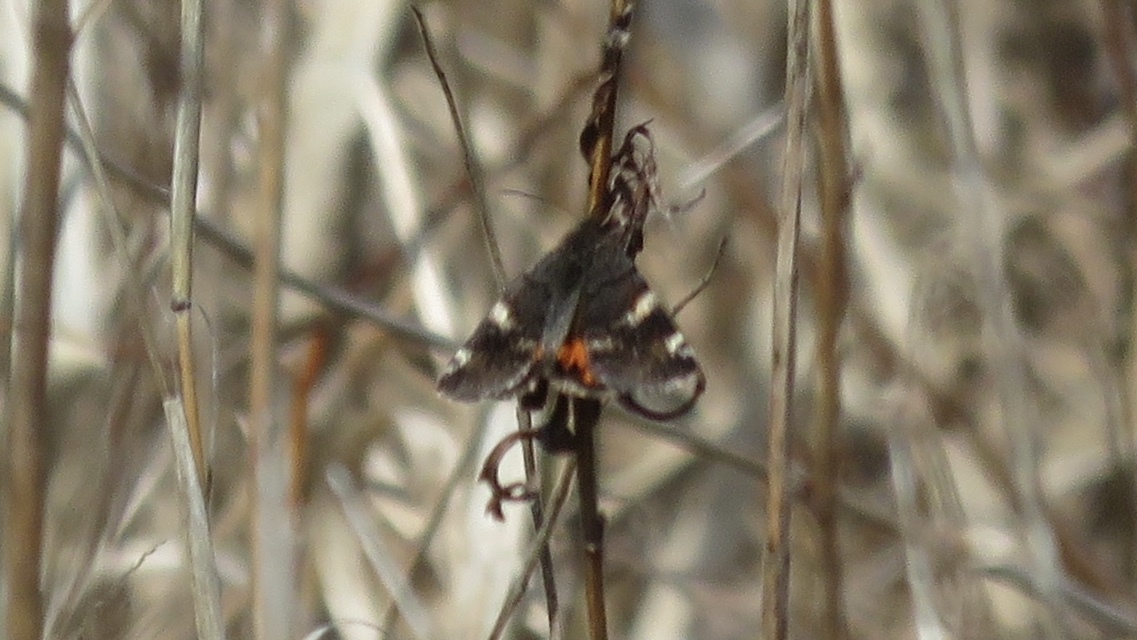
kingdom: Animalia
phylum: Arthropoda
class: Insecta
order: Lepidoptera
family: Geometridae
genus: Archiearis
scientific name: Archiearis infans
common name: First born geometer
